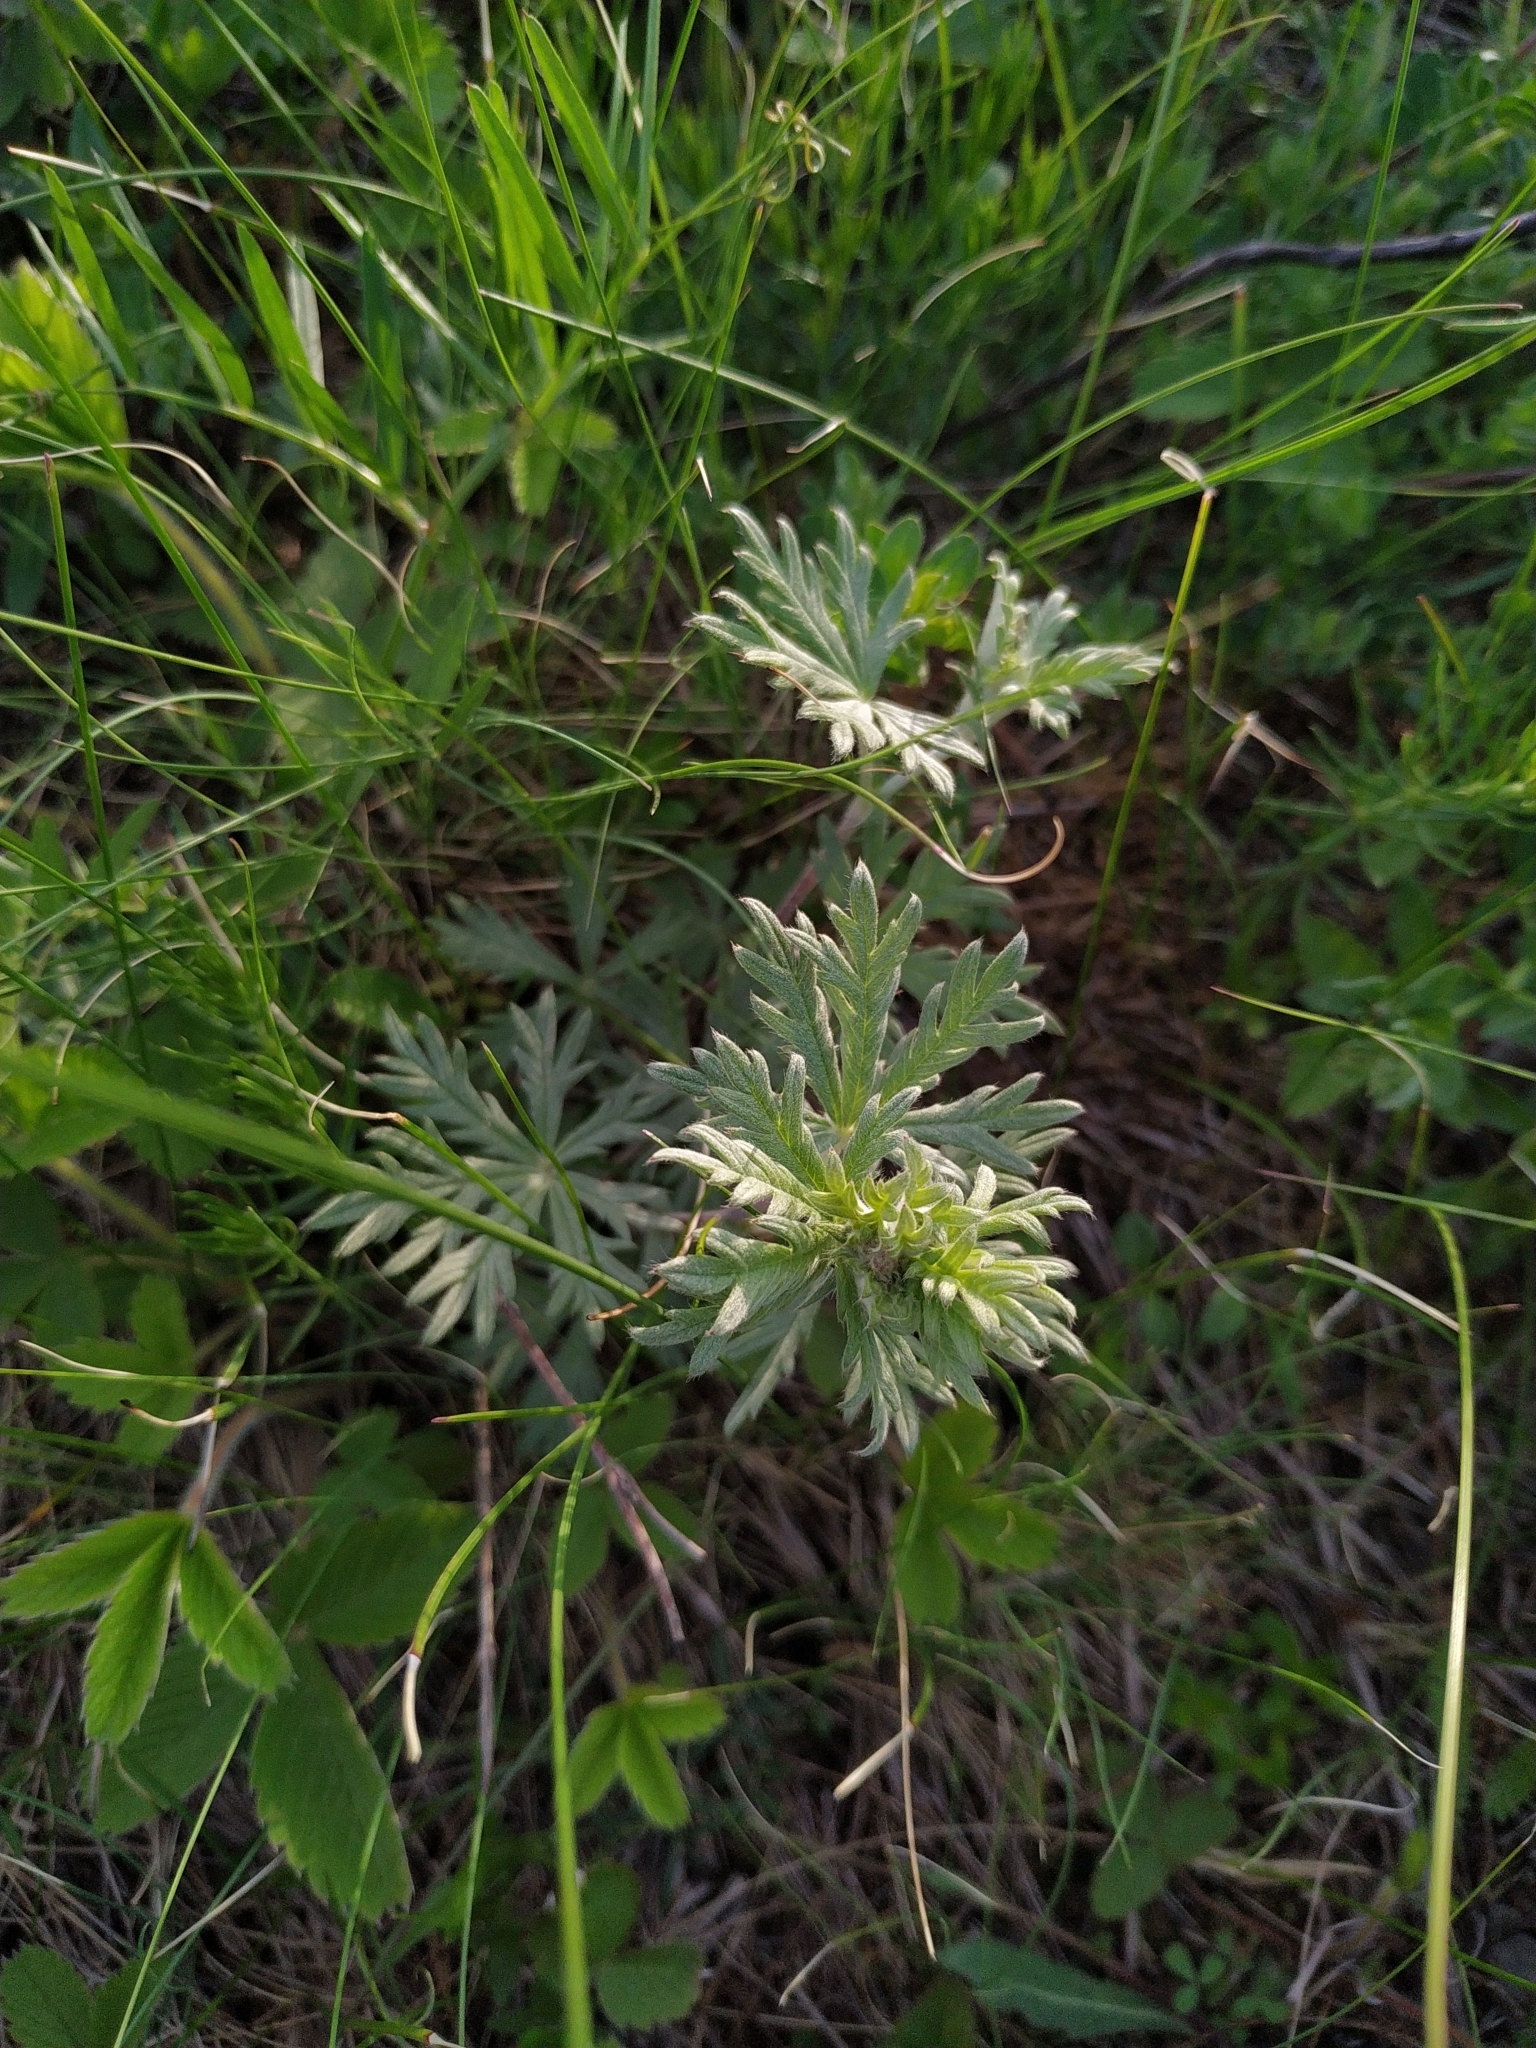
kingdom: Plantae
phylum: Tracheophyta
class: Magnoliopsida
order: Rosales
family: Rosaceae
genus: Potentilla
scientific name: Potentilla argentea
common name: Hoary cinquefoil
